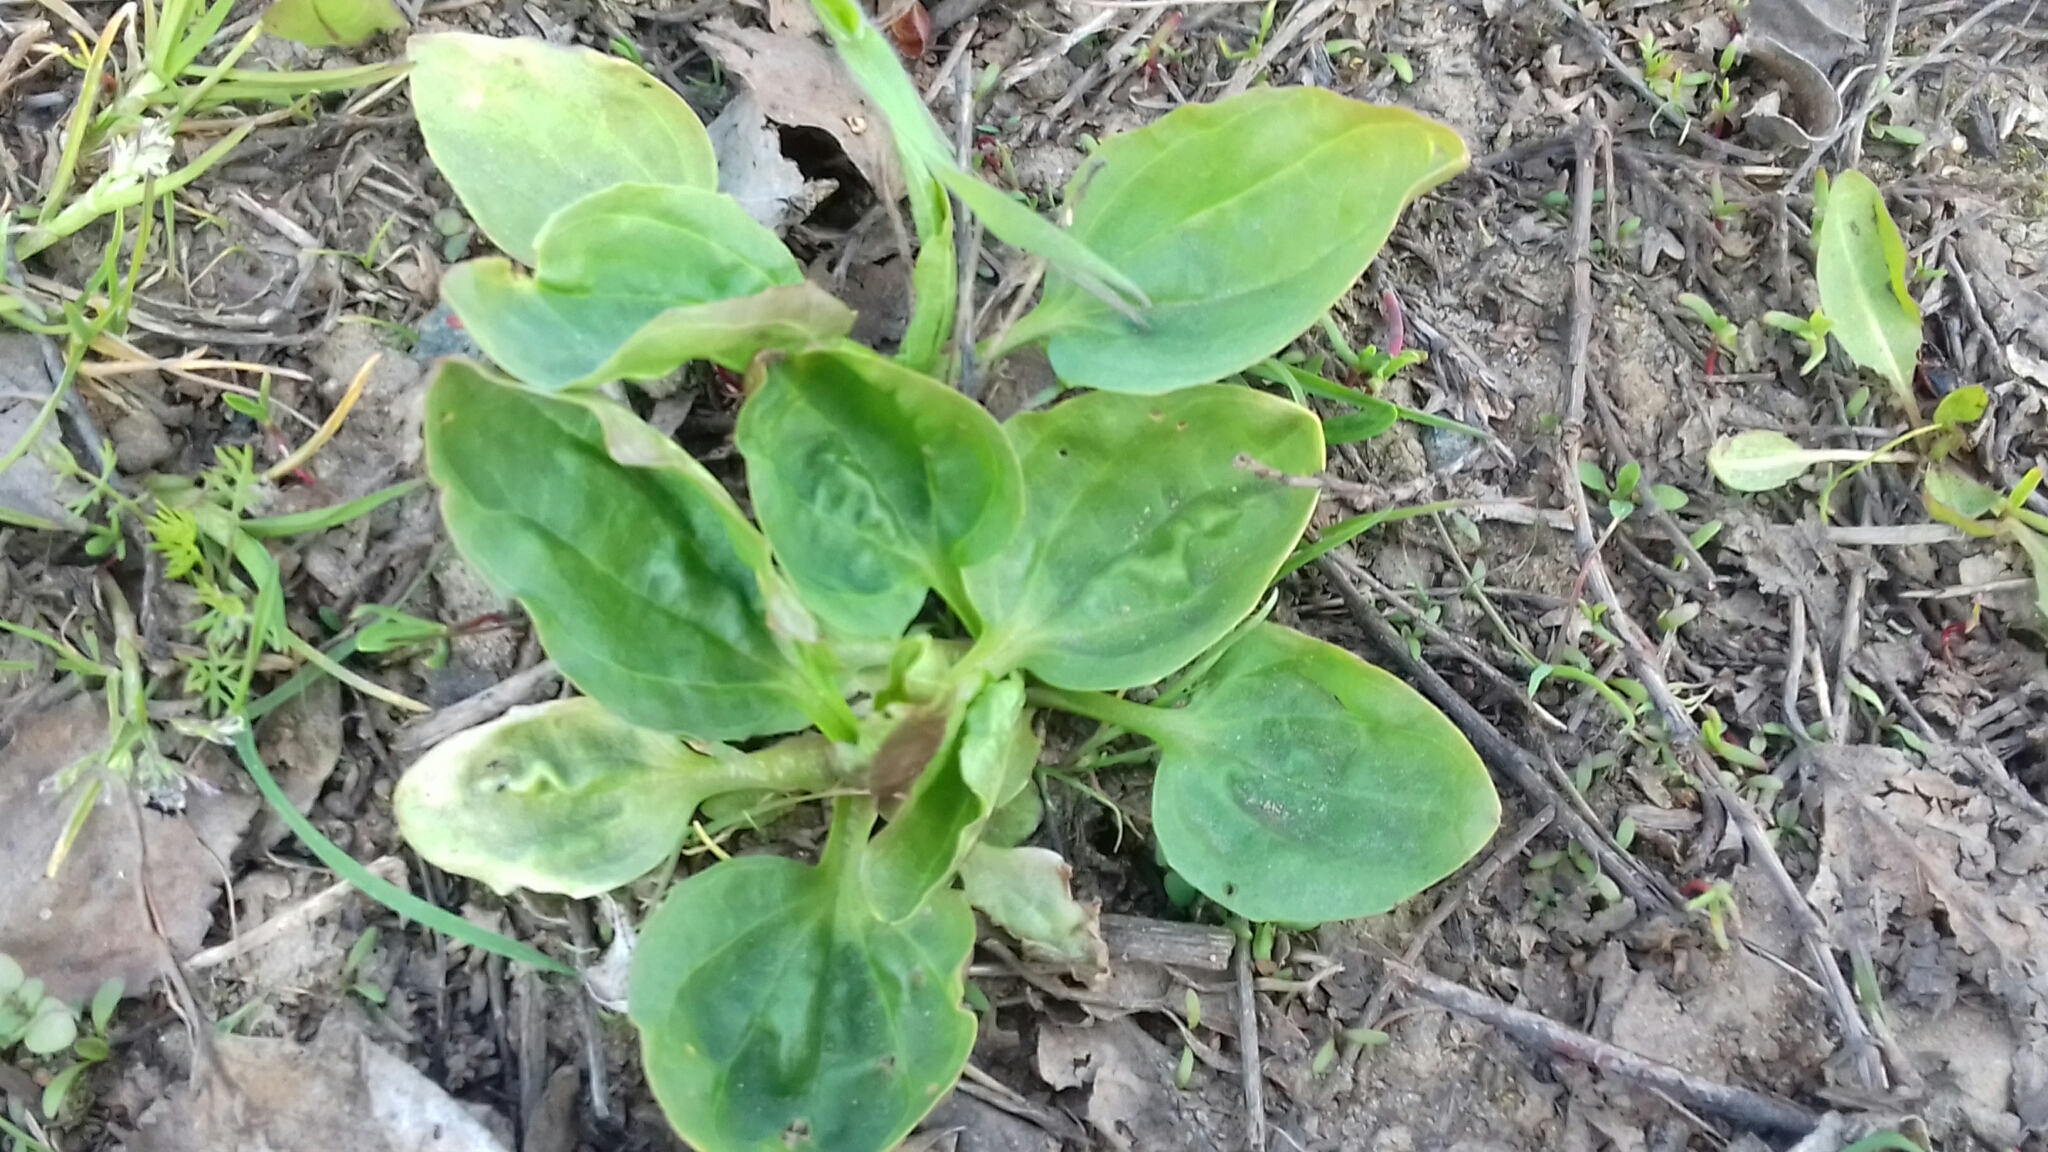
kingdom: Plantae
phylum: Tracheophyta
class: Magnoliopsida
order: Lamiales
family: Plantaginaceae
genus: Plantago
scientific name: Plantago major
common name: Common plantain
